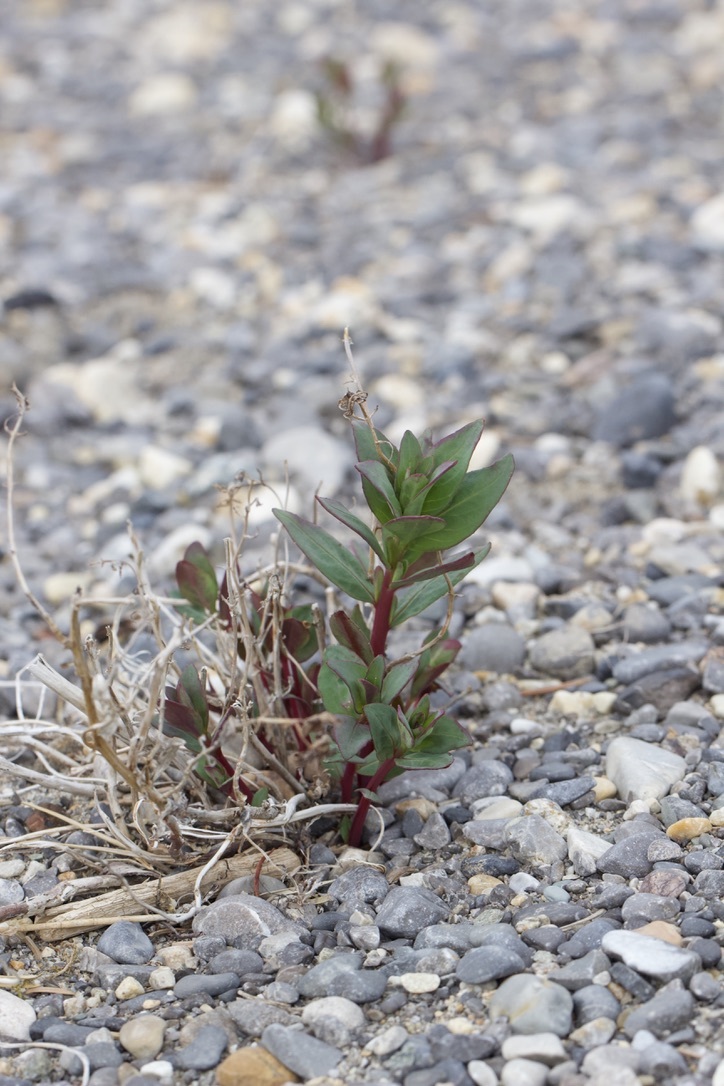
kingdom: Plantae
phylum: Tracheophyta
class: Magnoliopsida
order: Myrtales
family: Onagraceae
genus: Chamaenerion
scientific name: Chamaenerion latifolium
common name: Dwarf fireweed
